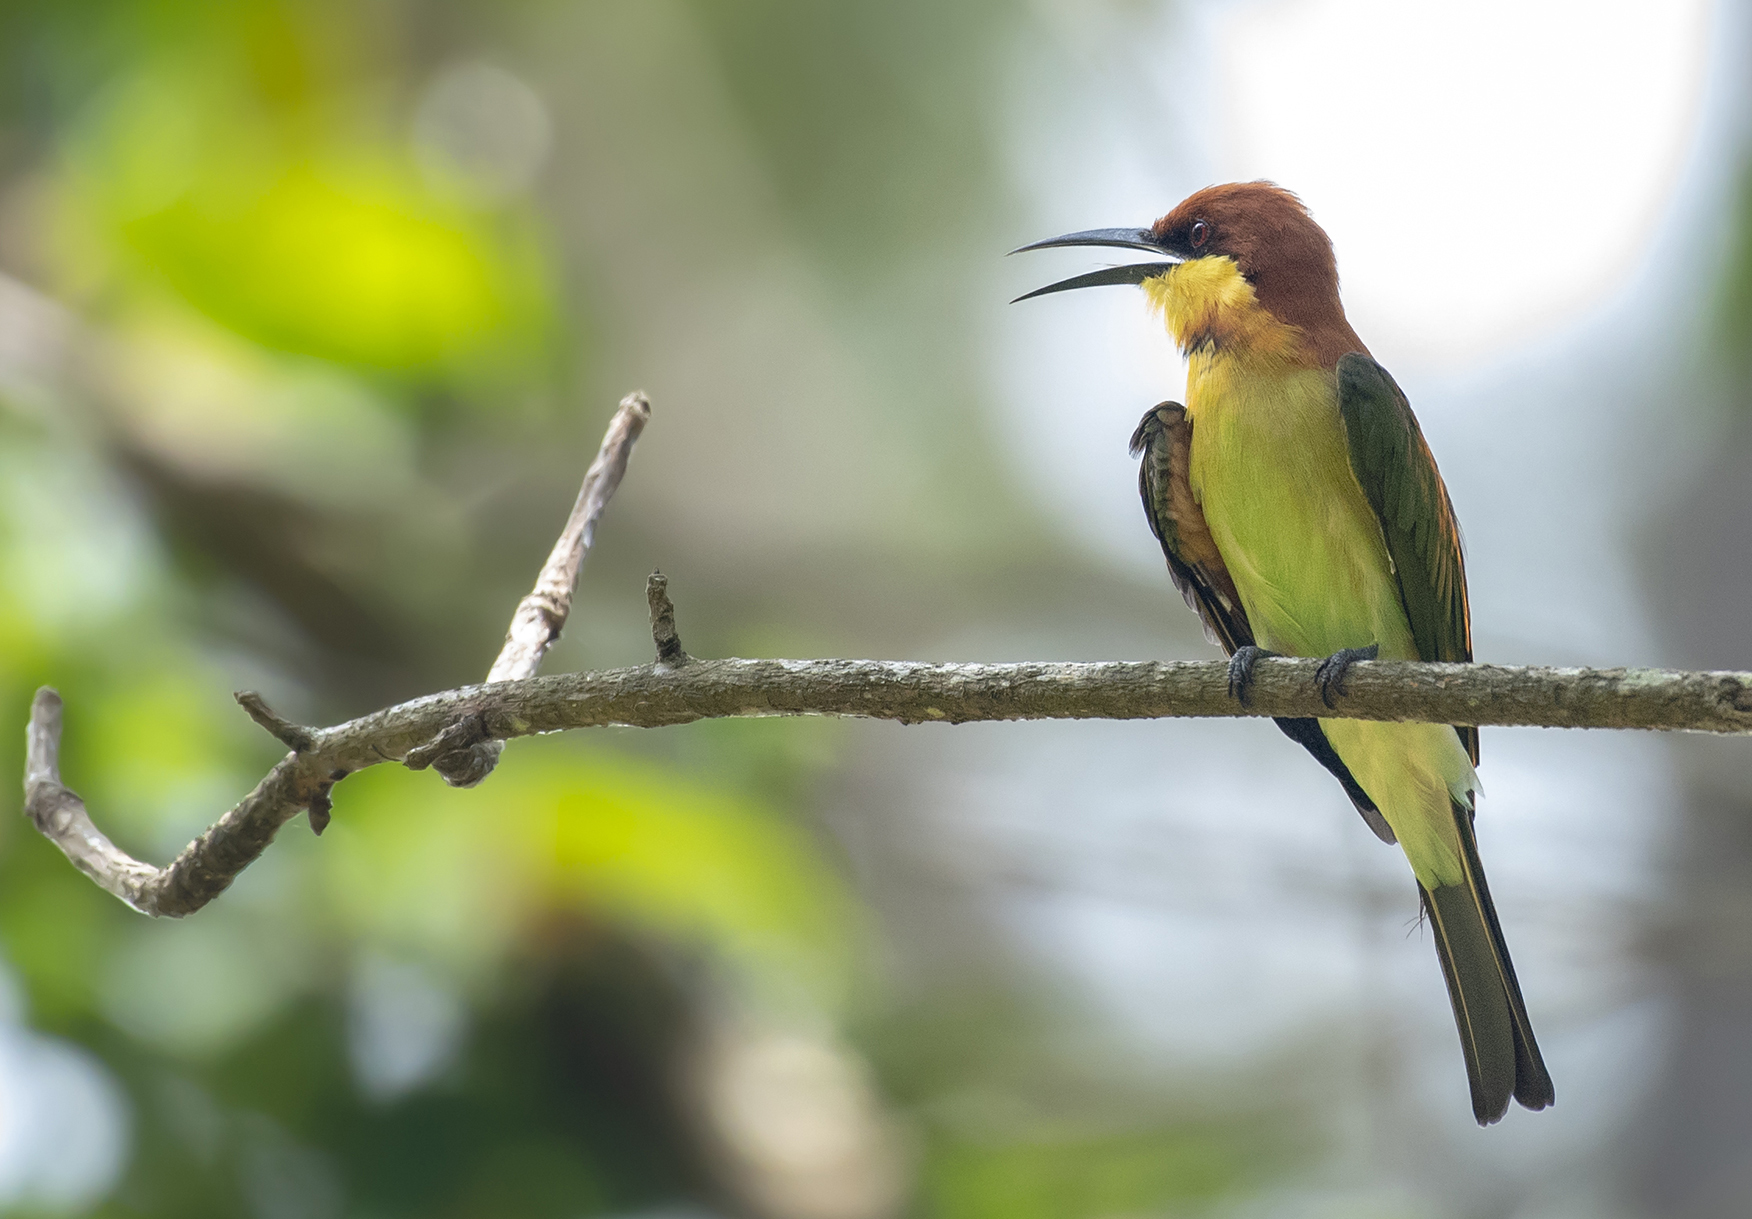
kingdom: Animalia
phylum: Chordata
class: Aves
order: Coraciiformes
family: Meropidae
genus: Merops
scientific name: Merops leschenaulti
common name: Chestnut-headed bee-eater
